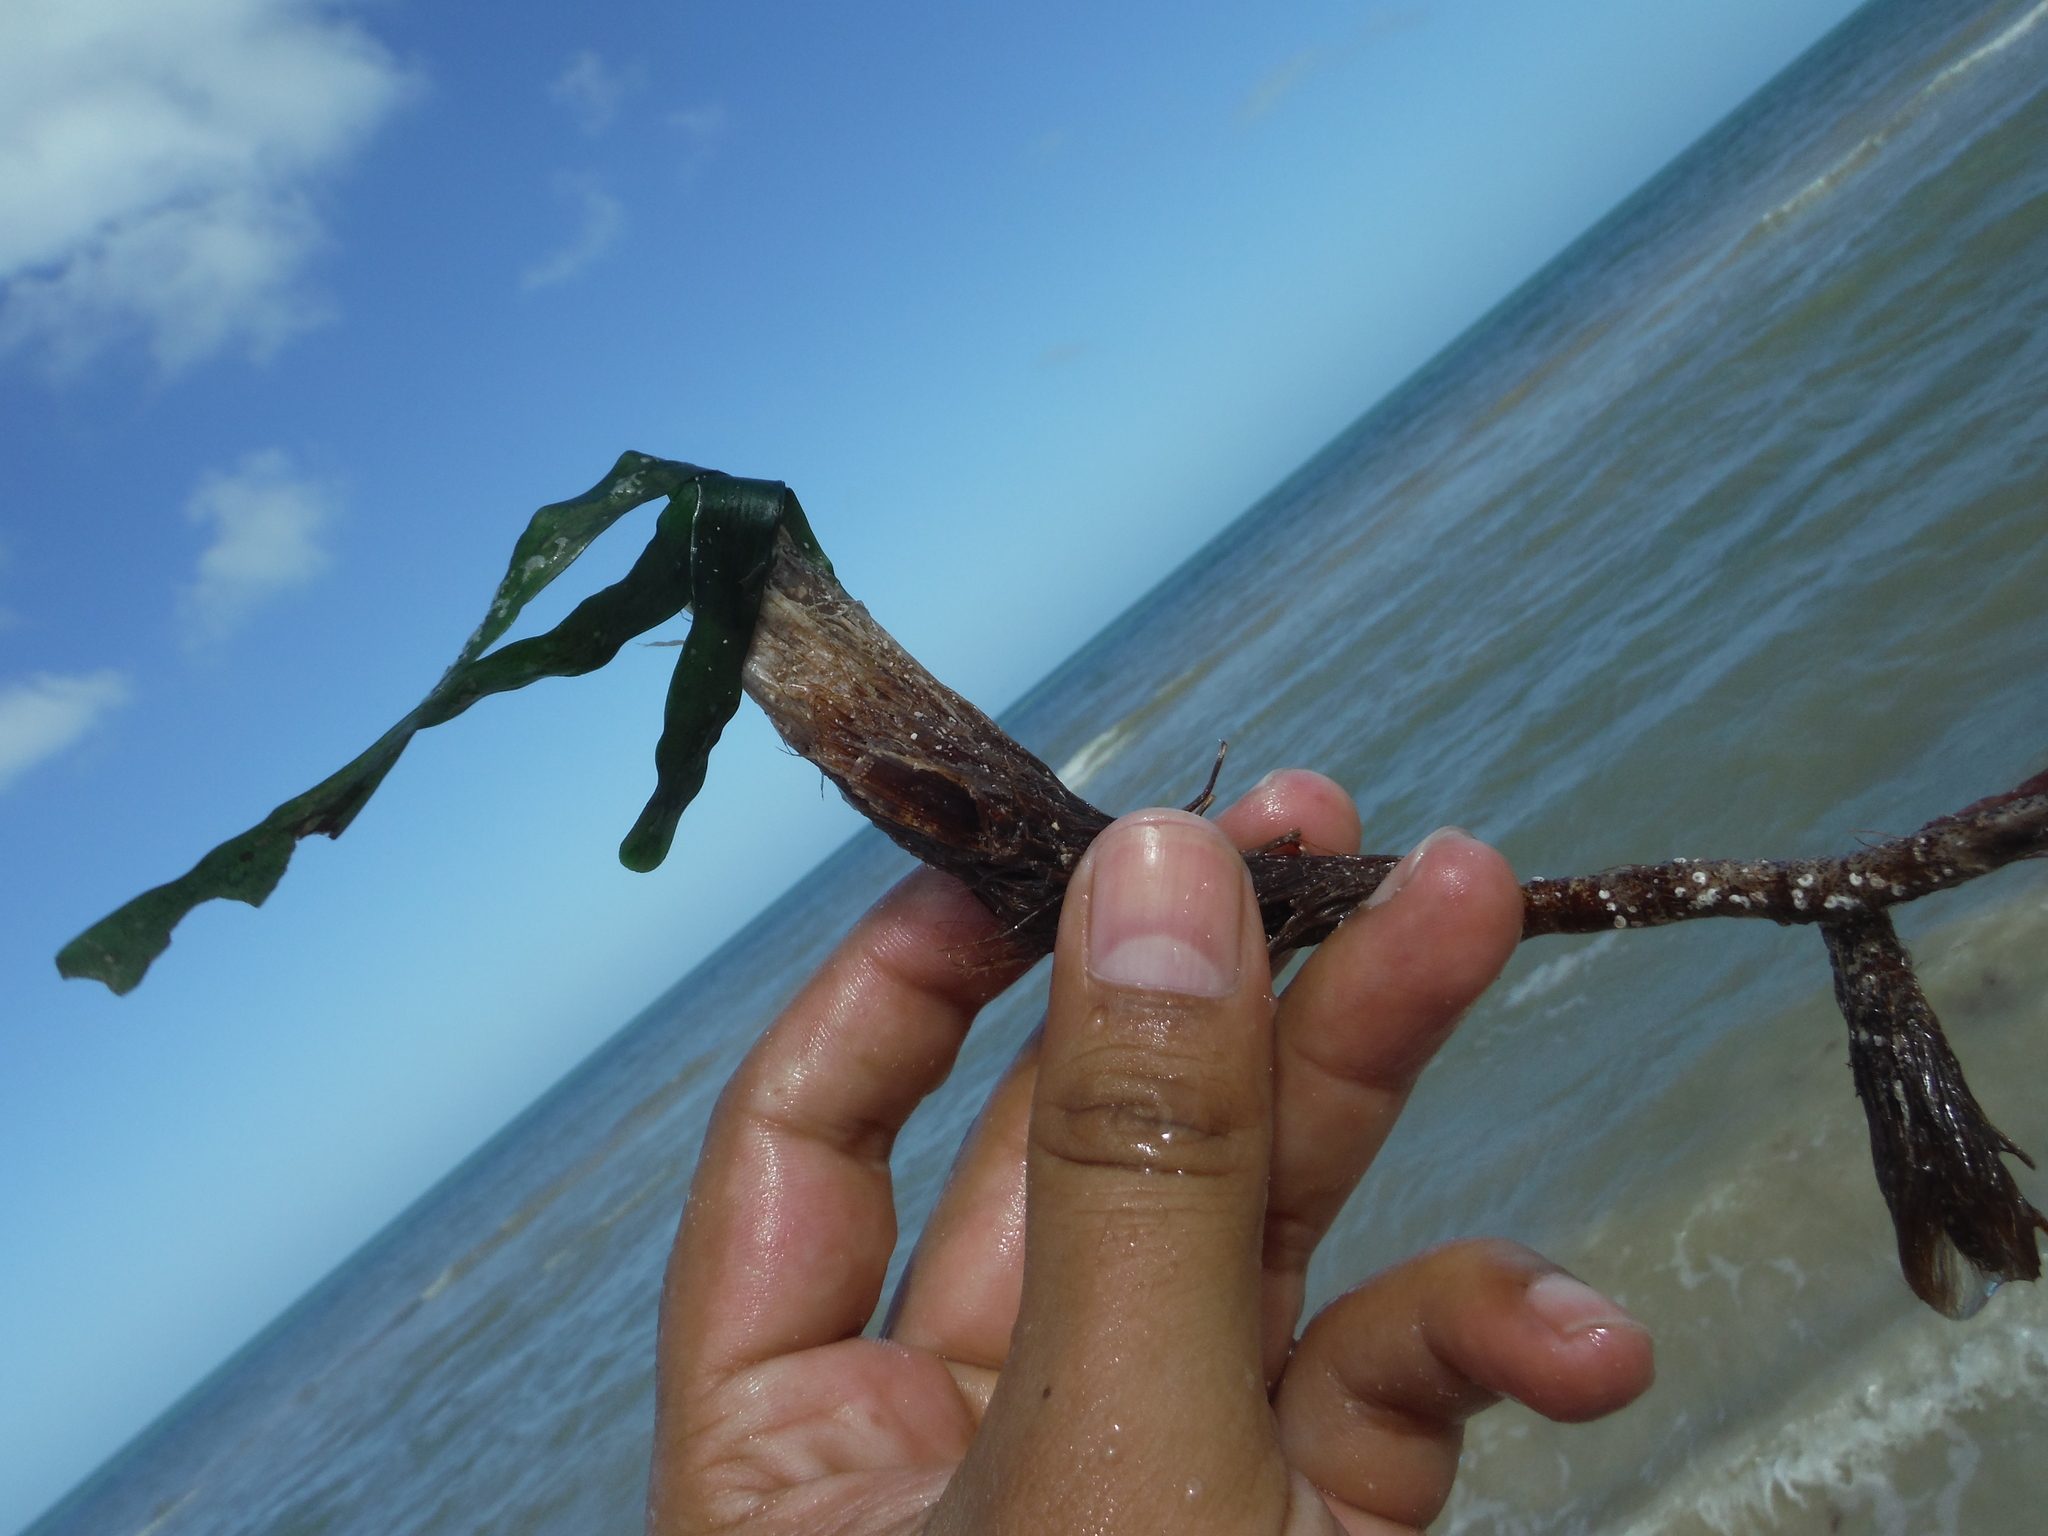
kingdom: Plantae
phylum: Tracheophyta
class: Liliopsida
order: Alismatales
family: Hydrocharitaceae
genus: Thalassia
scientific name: Thalassia testudinum
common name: Species code: tt
